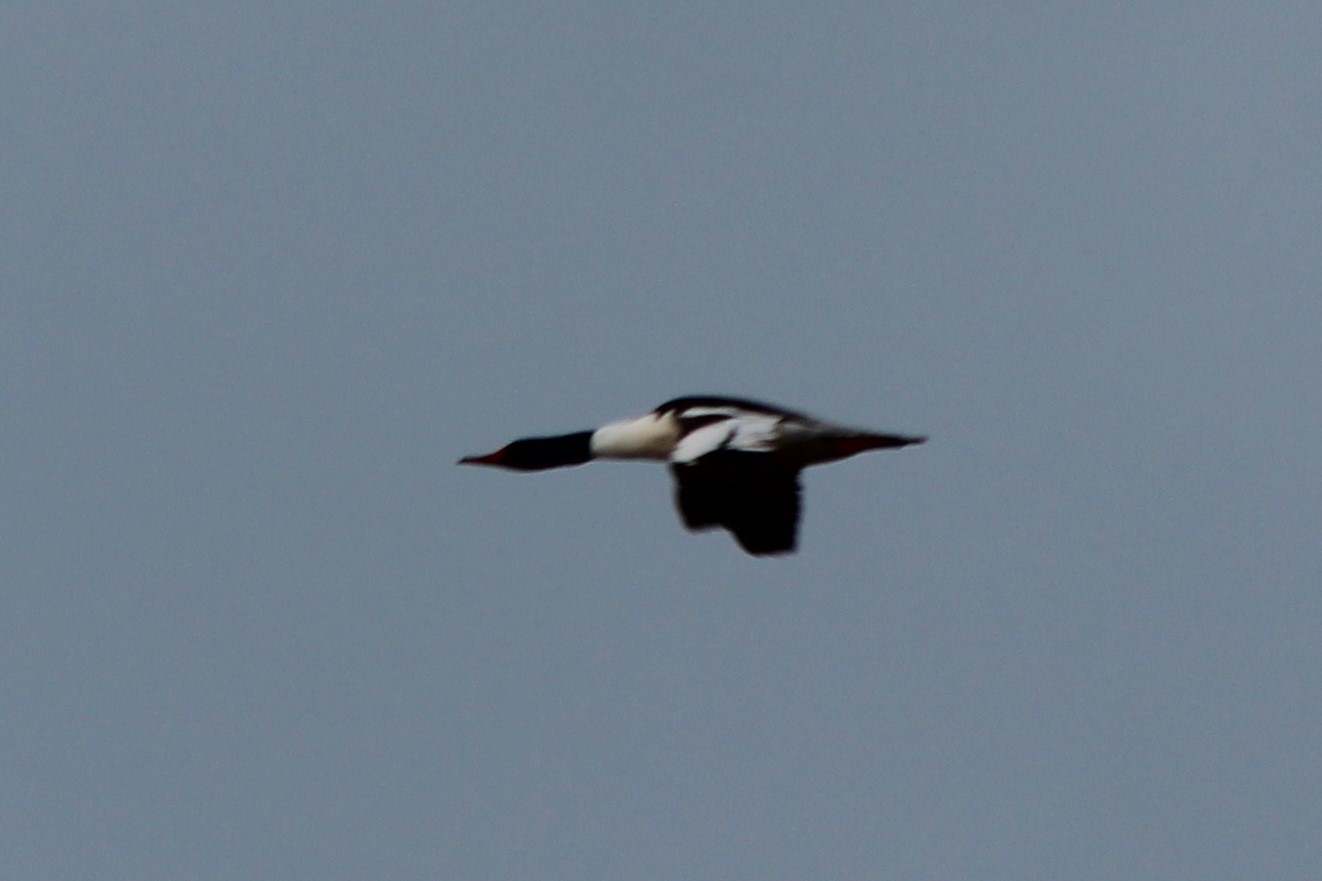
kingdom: Animalia
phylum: Chordata
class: Aves
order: Anseriformes
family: Anatidae
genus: Mergus
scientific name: Mergus merganser
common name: Common merganser
